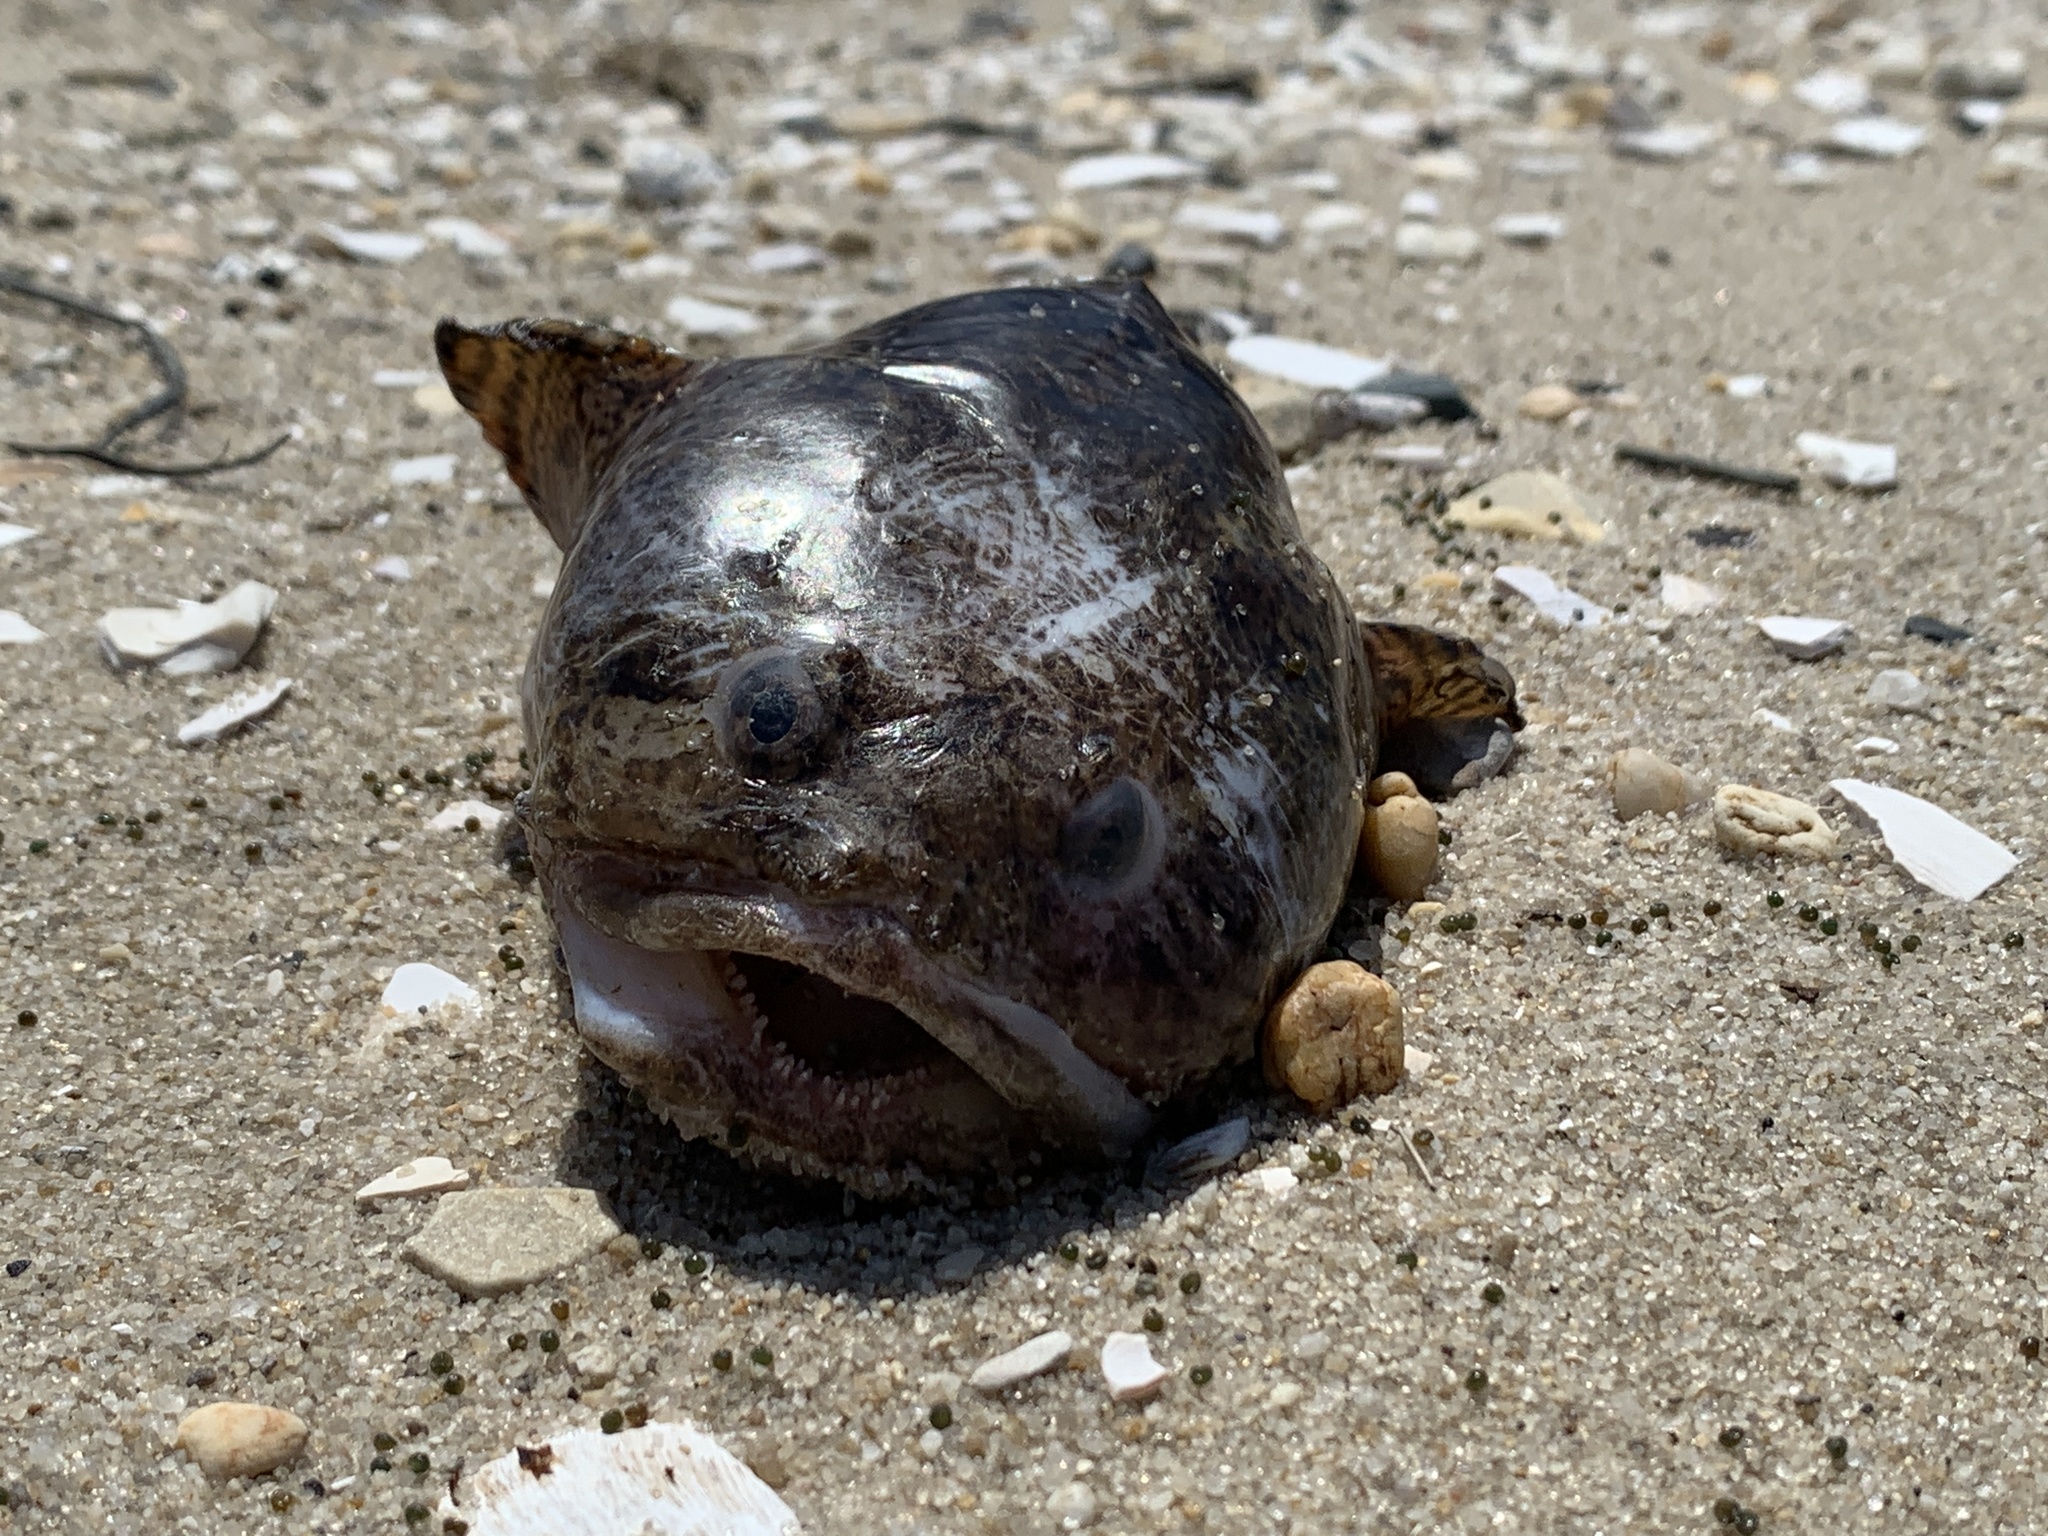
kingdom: Animalia
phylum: Chordata
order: Batrachoidiformes
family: Batrachoididae
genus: Opsanus
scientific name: Opsanus tau
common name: Oyster toadfish
